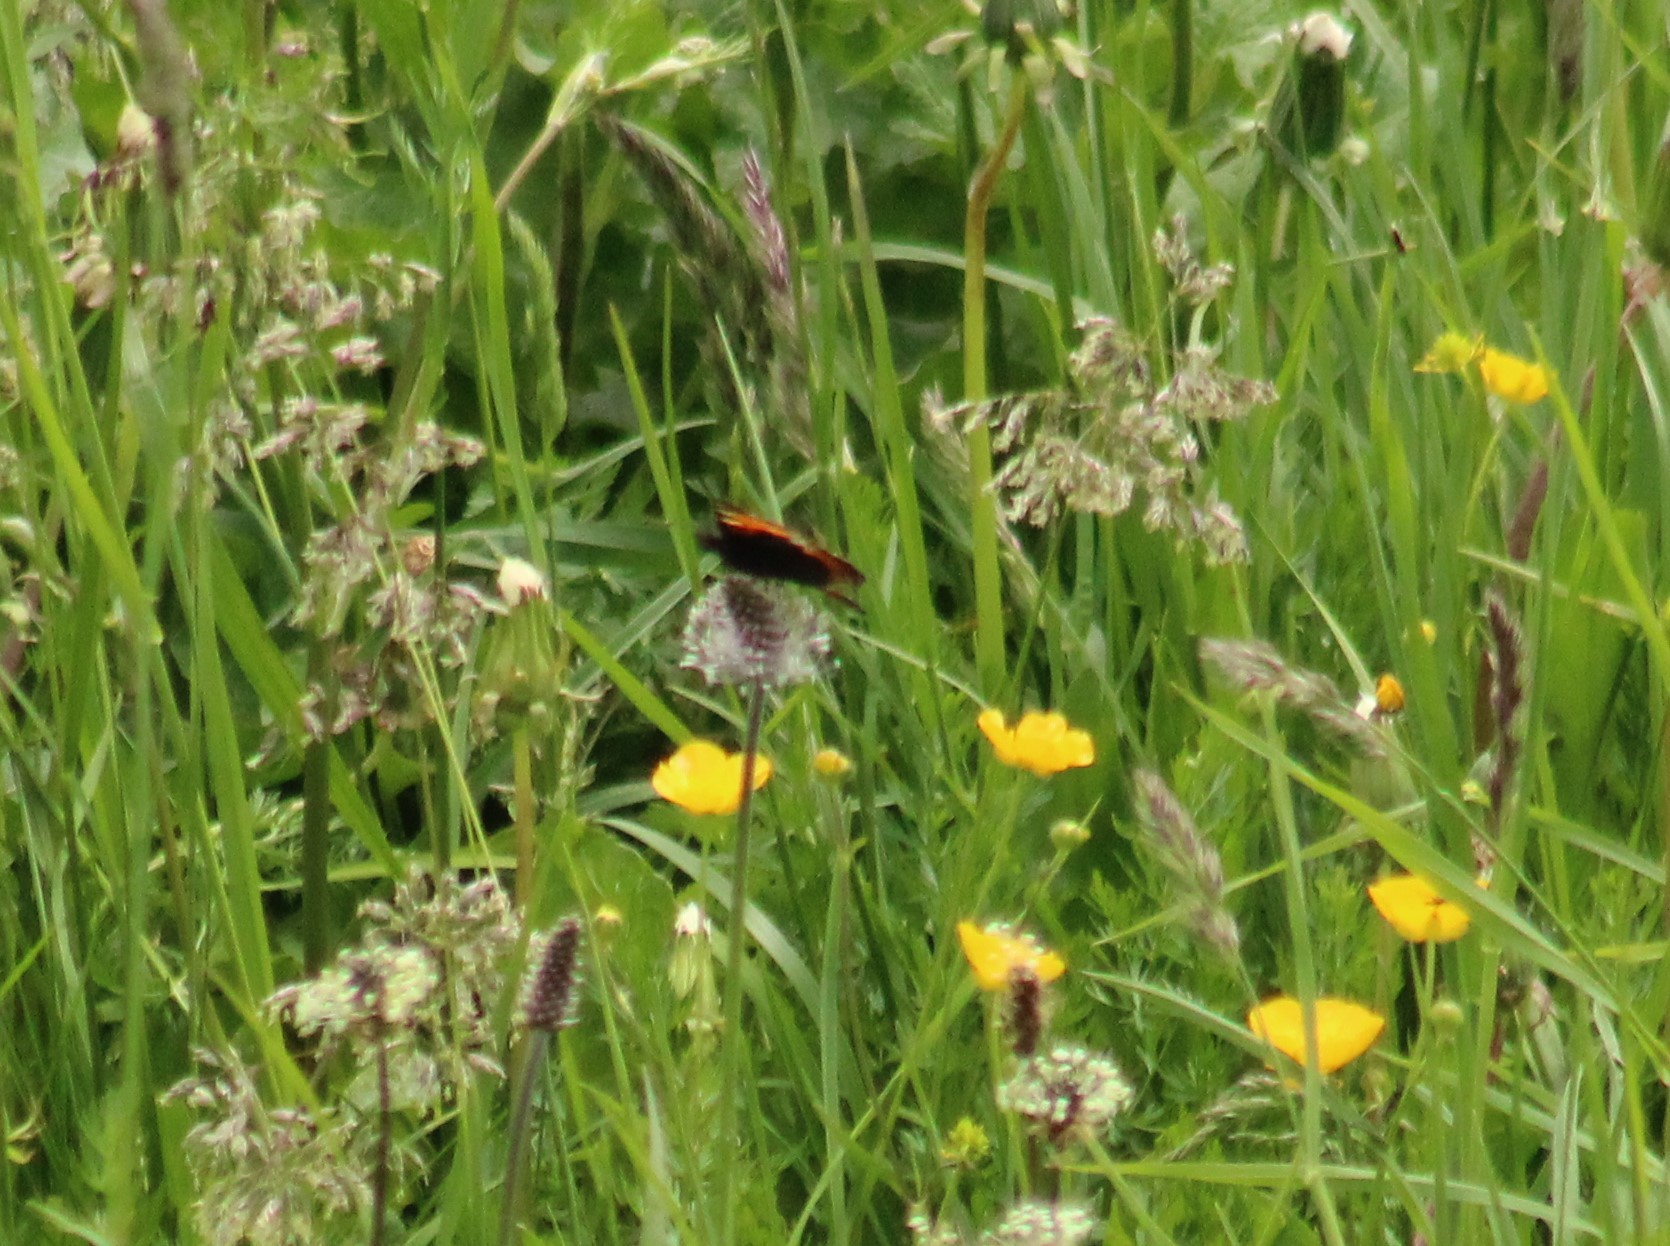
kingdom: Animalia
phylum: Arthropoda
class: Insecta
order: Lepidoptera
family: Nymphalidae
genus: Aglais
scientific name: Aglais urticae
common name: Small tortoiseshell
